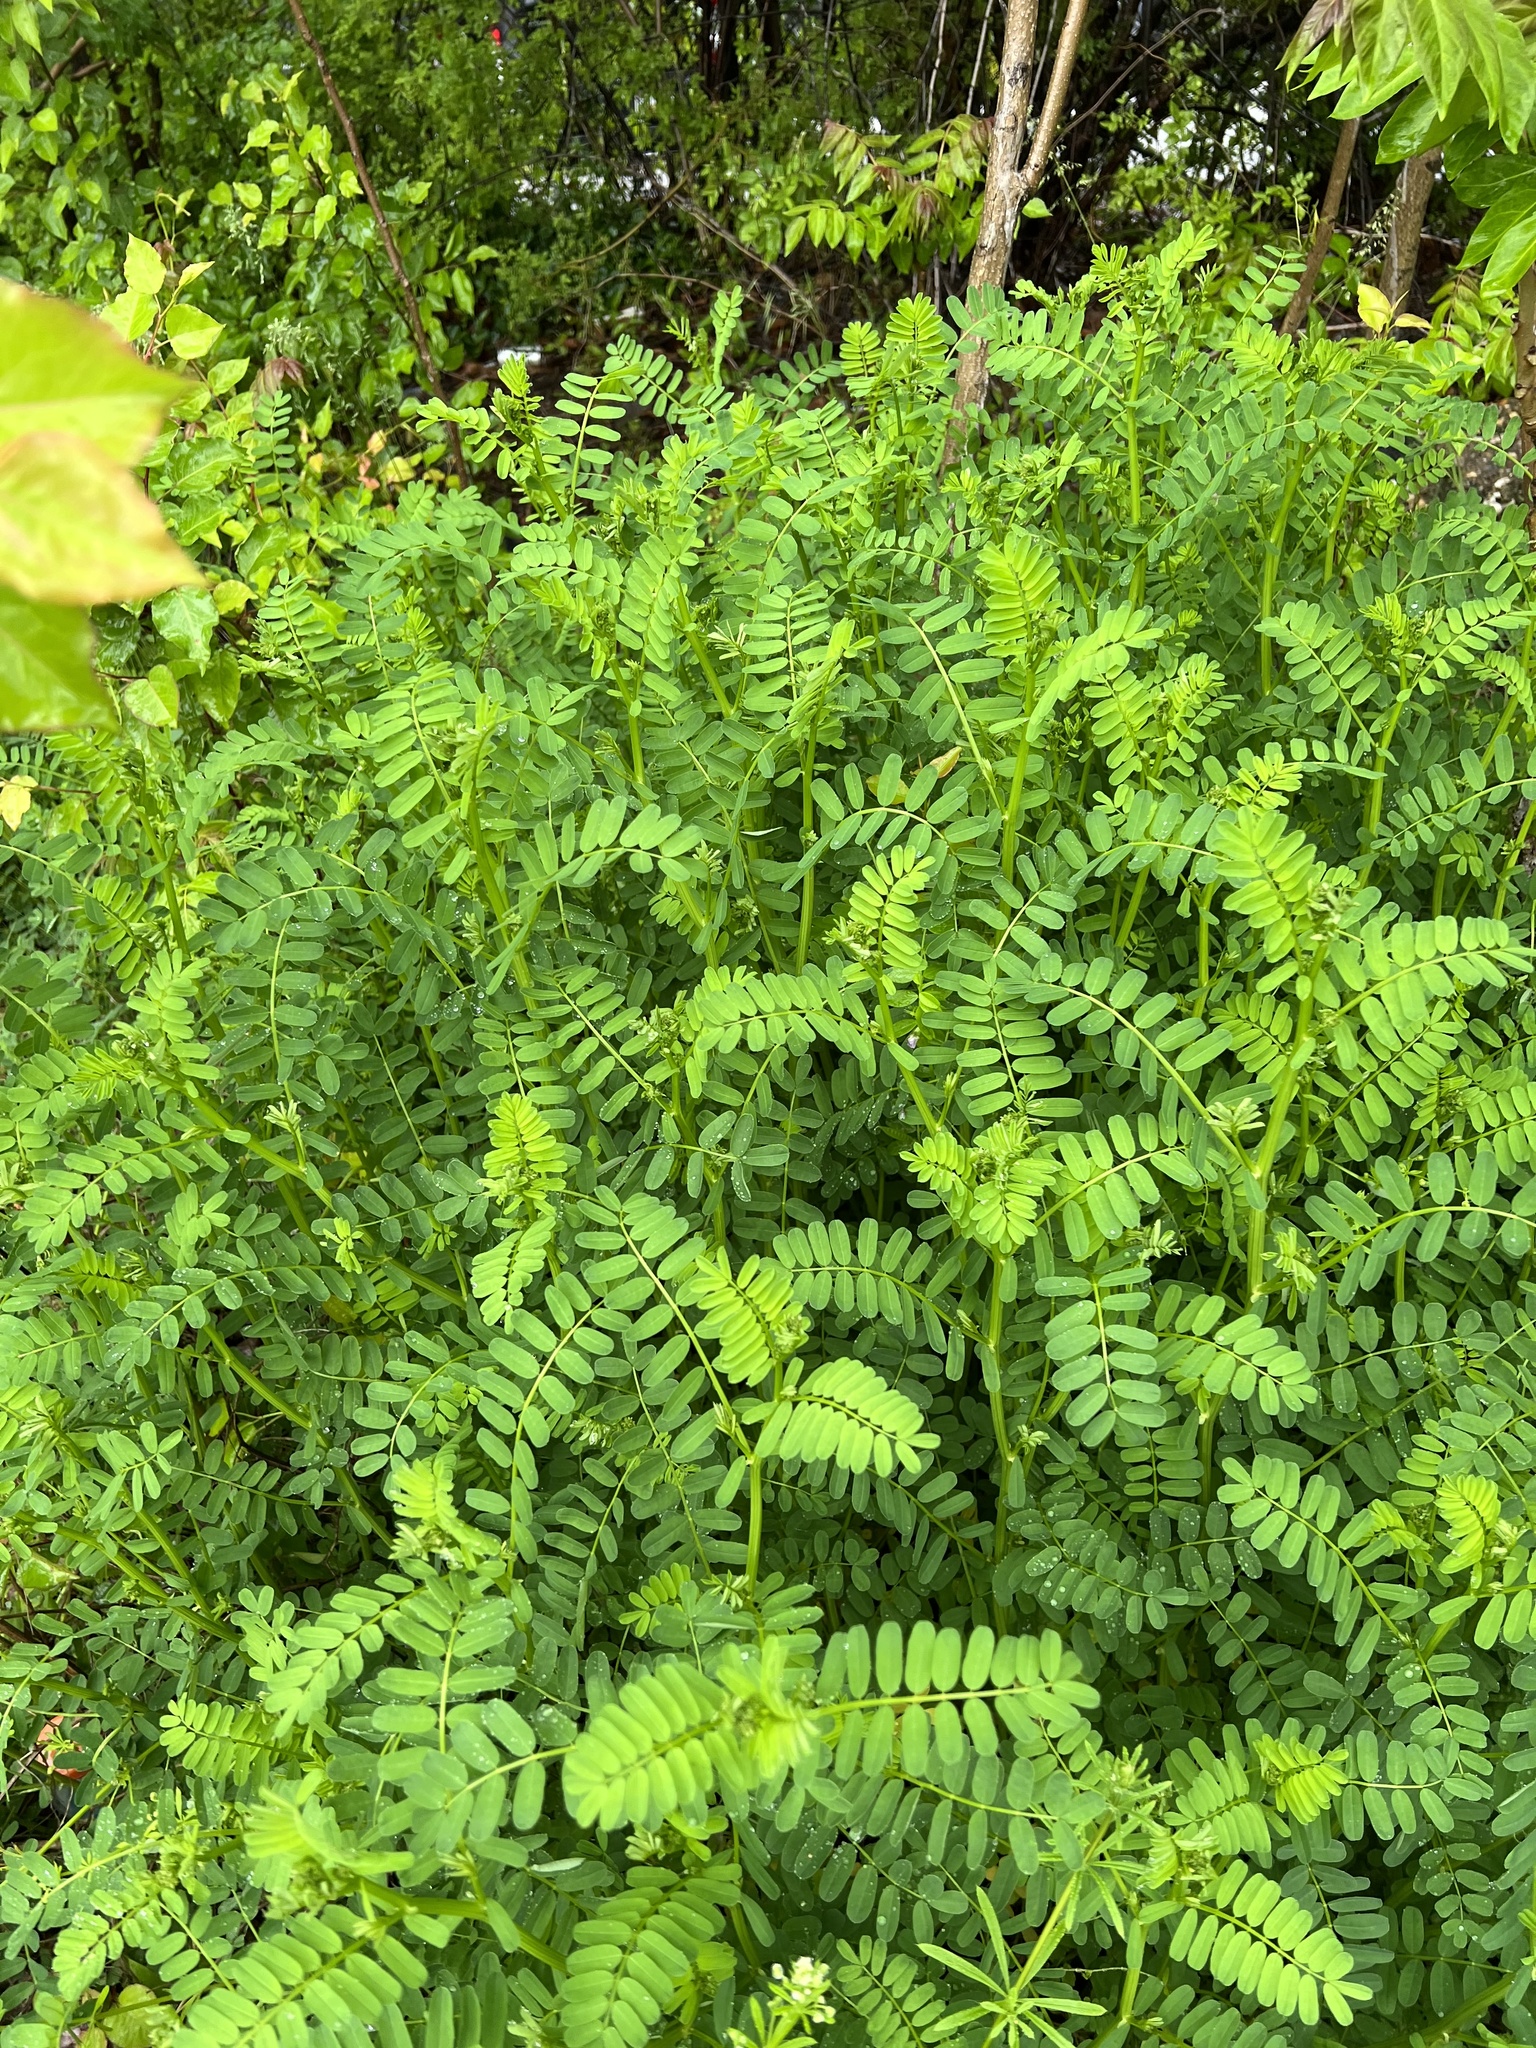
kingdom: Plantae
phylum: Tracheophyta
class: Magnoliopsida
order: Fabales
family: Fabaceae
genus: Coronilla
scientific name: Coronilla varia
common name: Crownvetch
